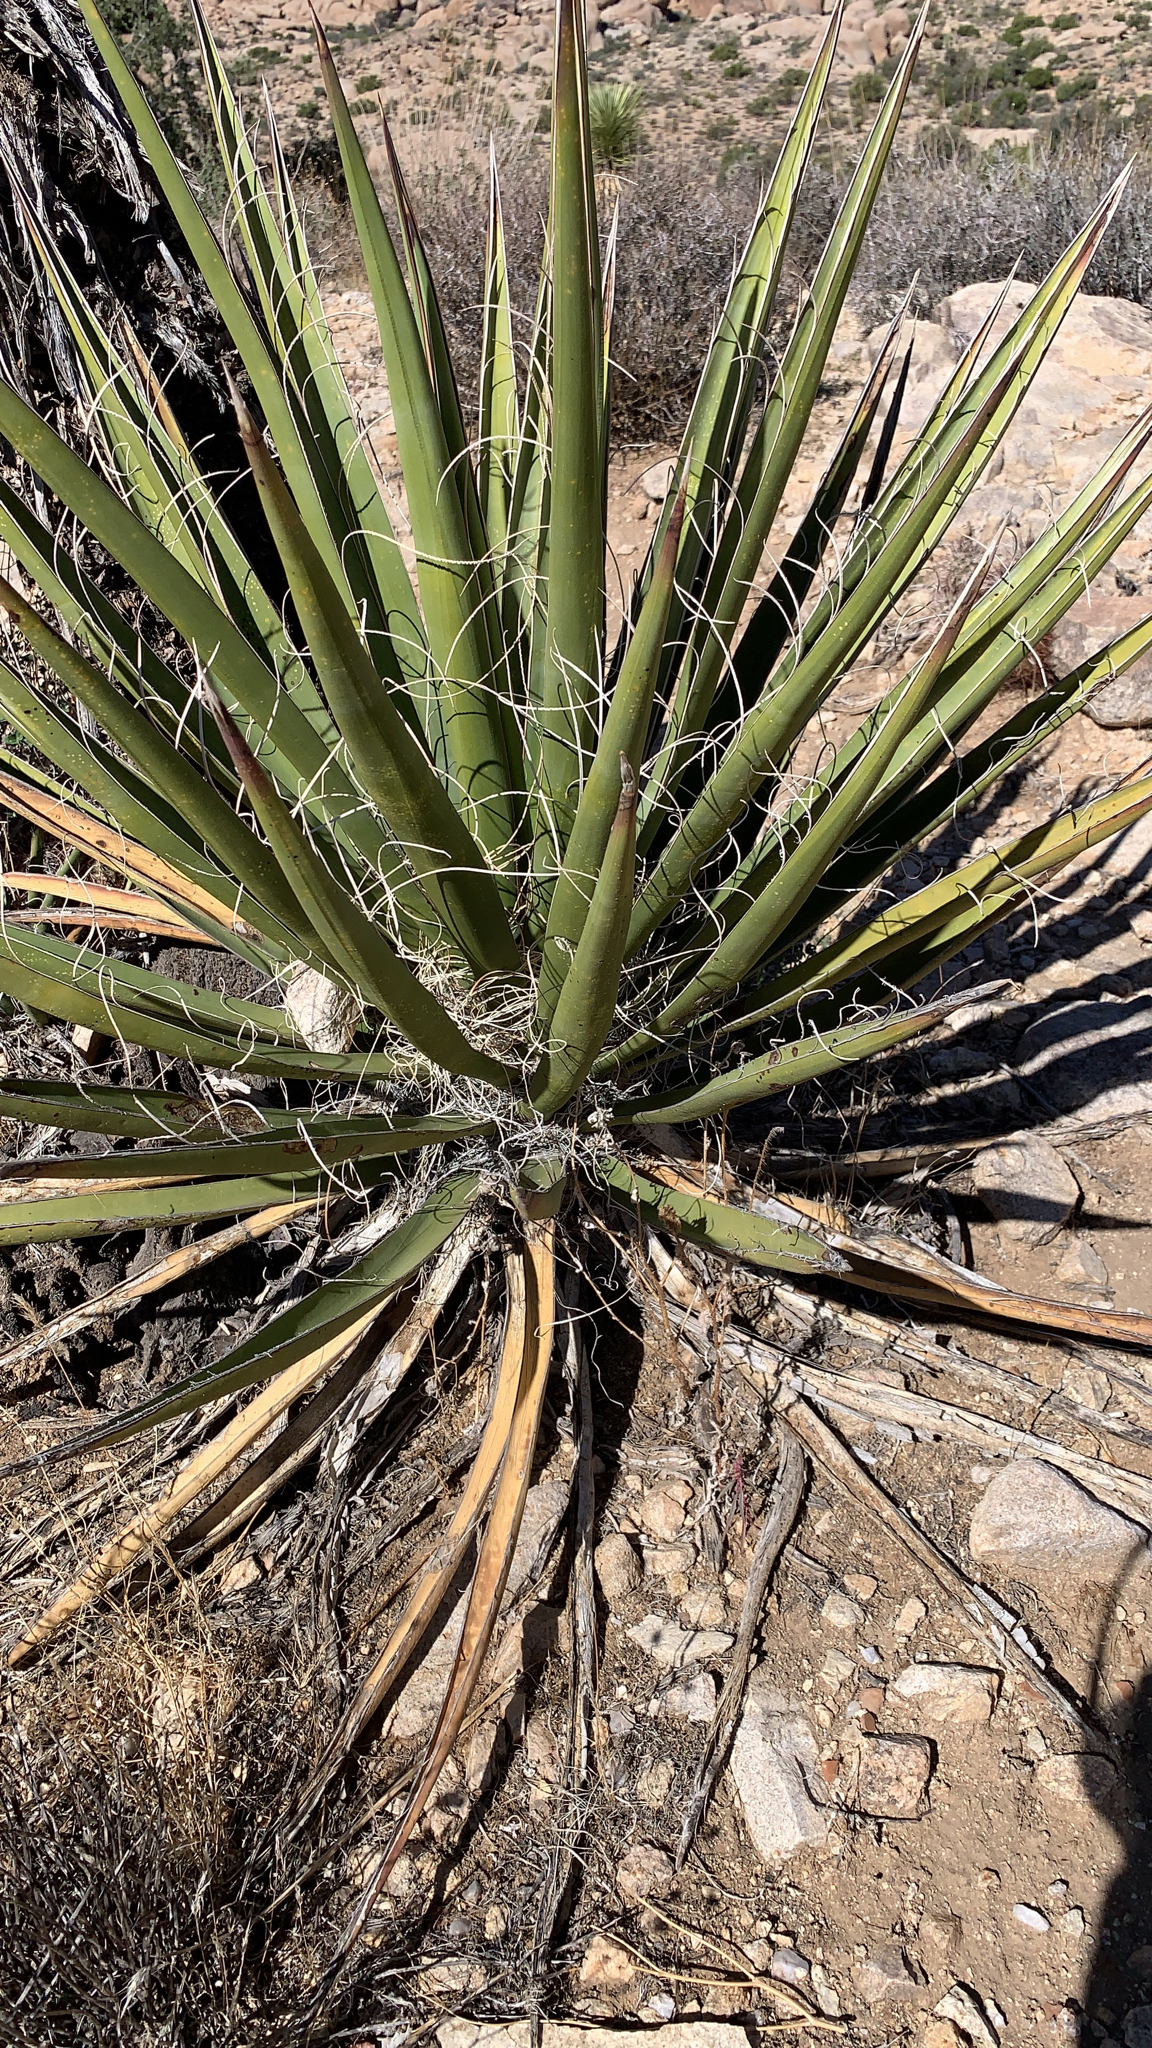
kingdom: Plantae
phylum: Tracheophyta
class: Liliopsida
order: Asparagales
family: Asparagaceae
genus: Yucca
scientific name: Yucca schidigera
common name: Mojave yucca
